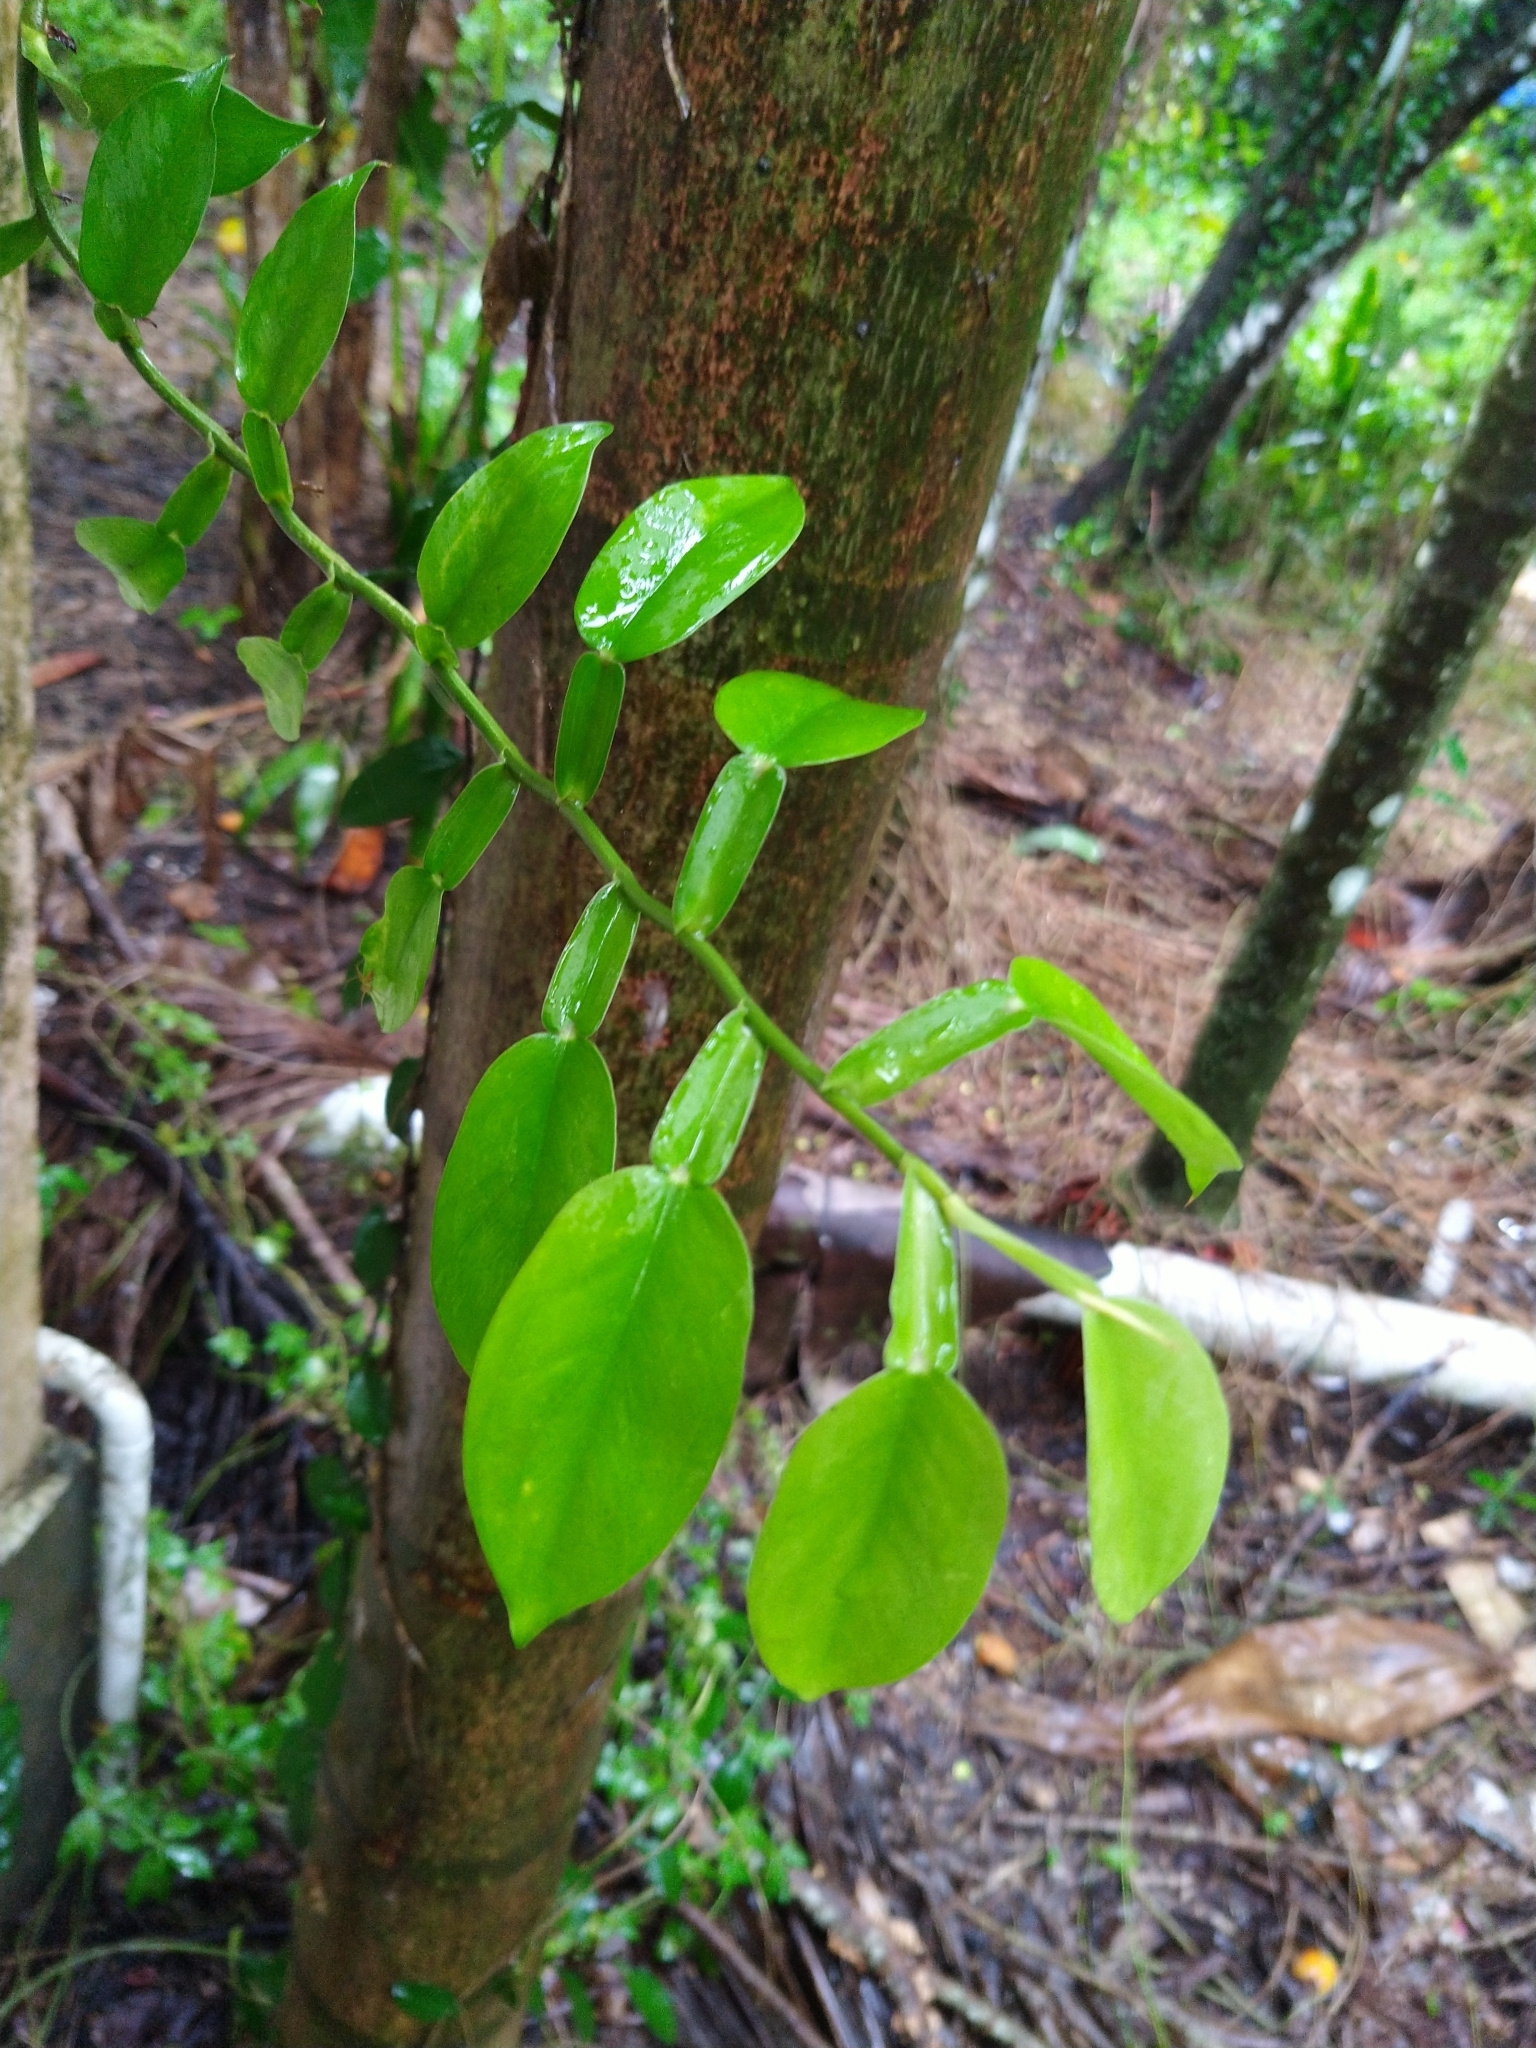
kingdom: Plantae
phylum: Tracheophyta
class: Liliopsida
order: Alismatales
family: Araceae
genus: Pothos
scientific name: Pothos chinensis
